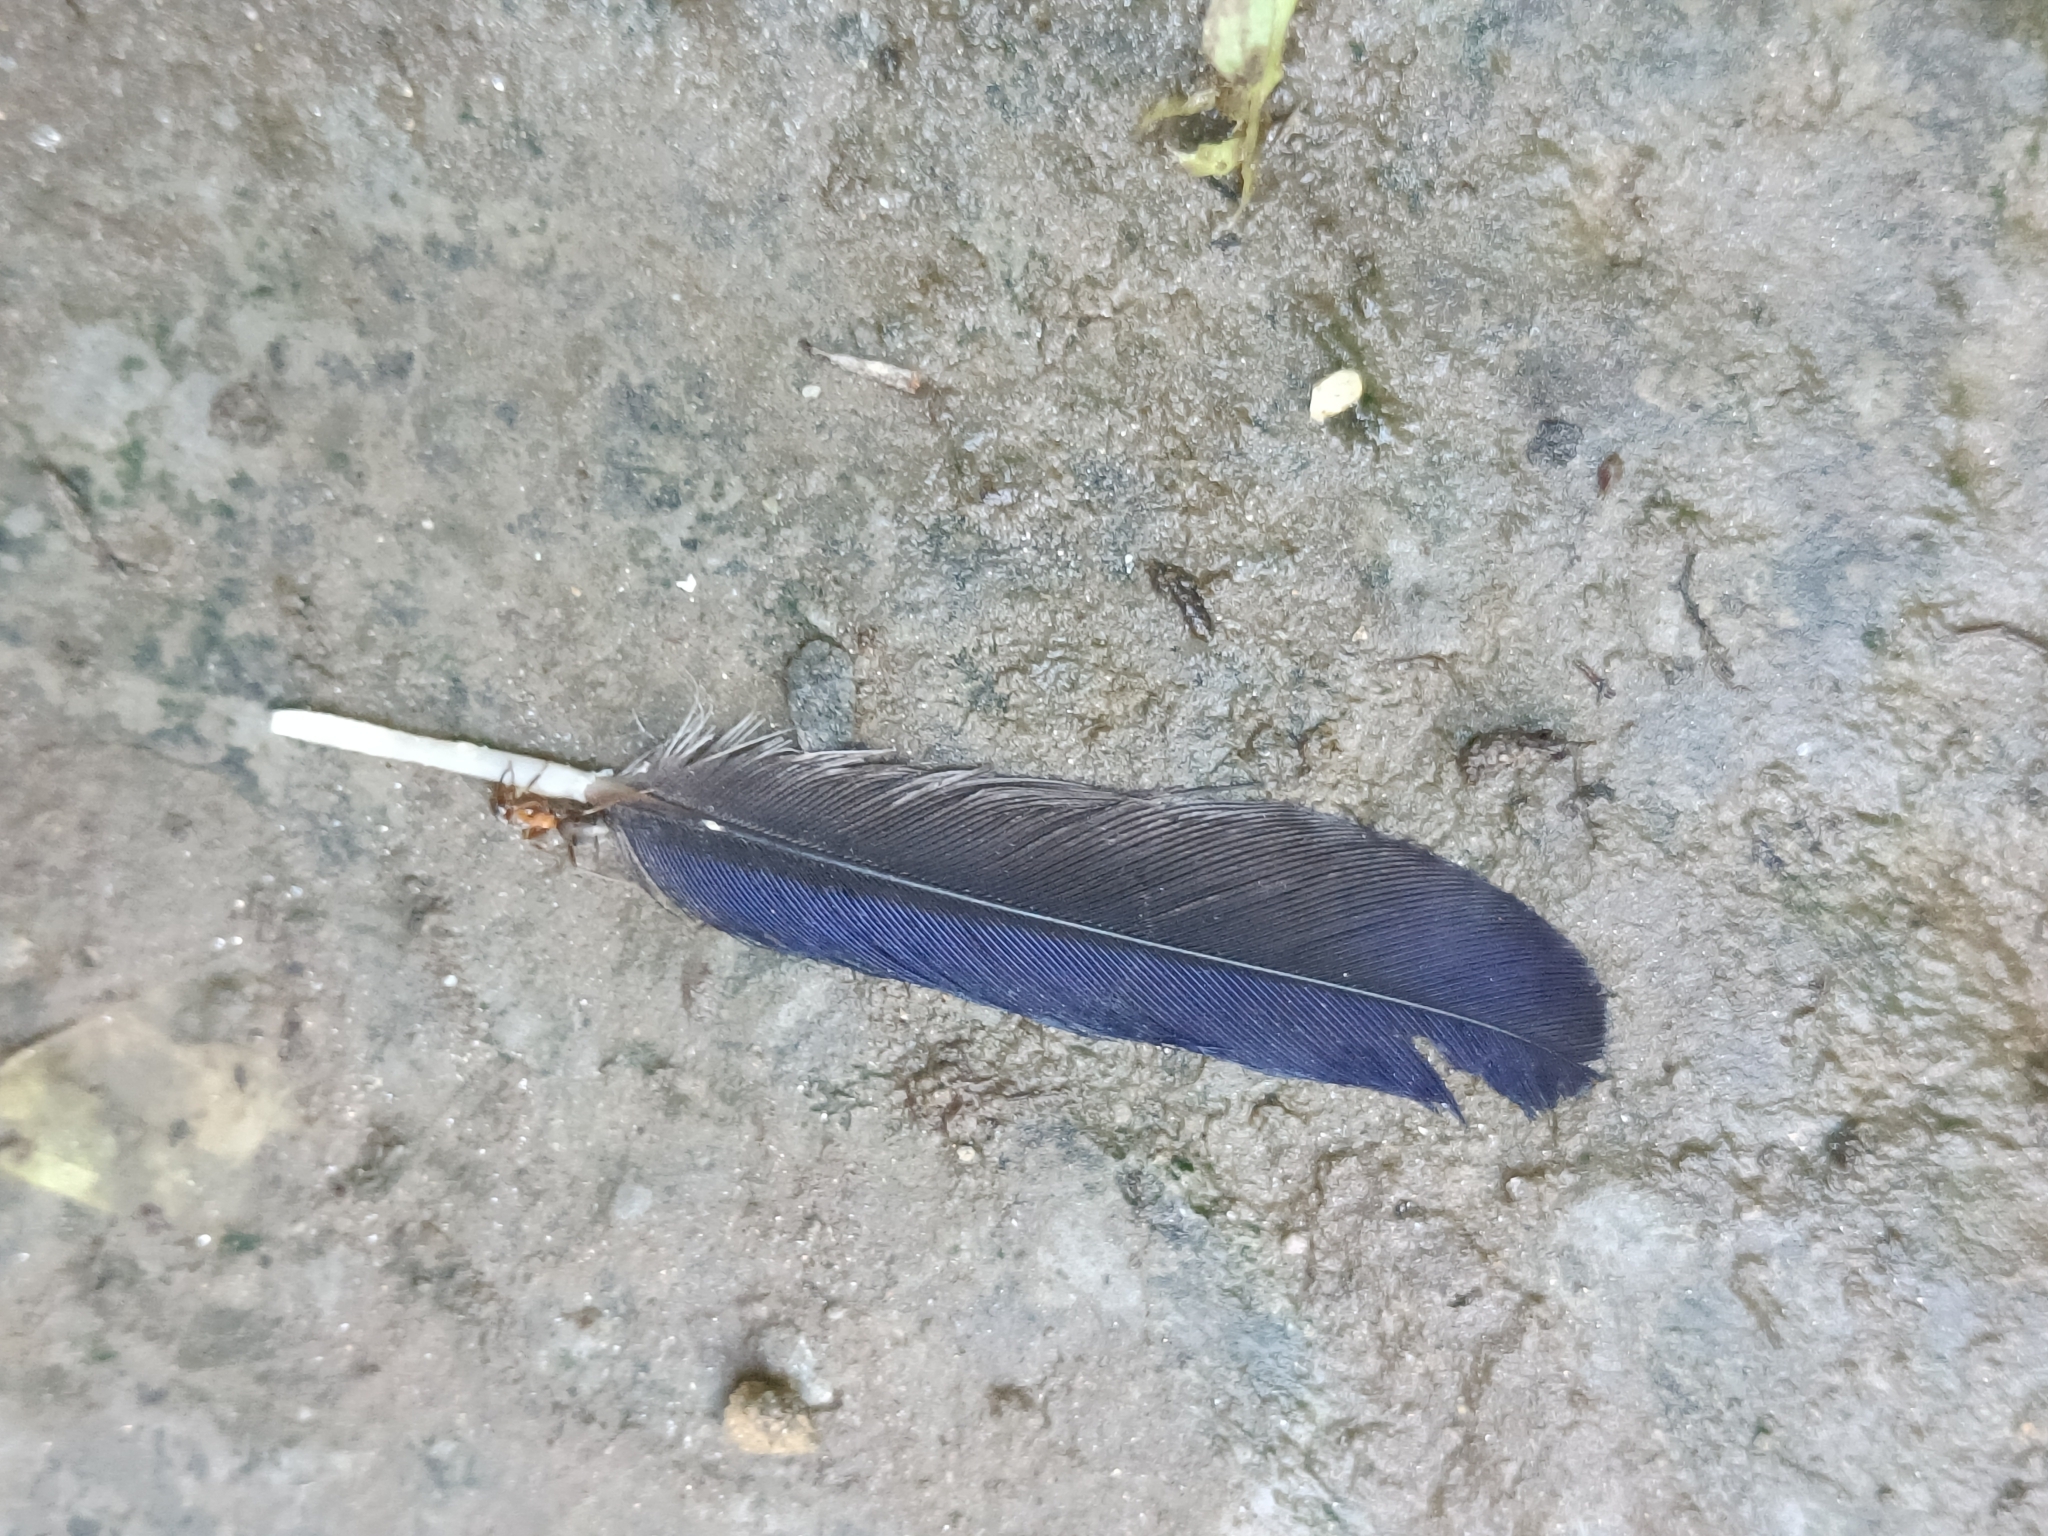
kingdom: Animalia
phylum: Chordata
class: Aves
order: Passeriformes
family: Muscicapidae
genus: Myophonus
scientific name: Myophonus caeruleus
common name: Blue whistling-thrush
